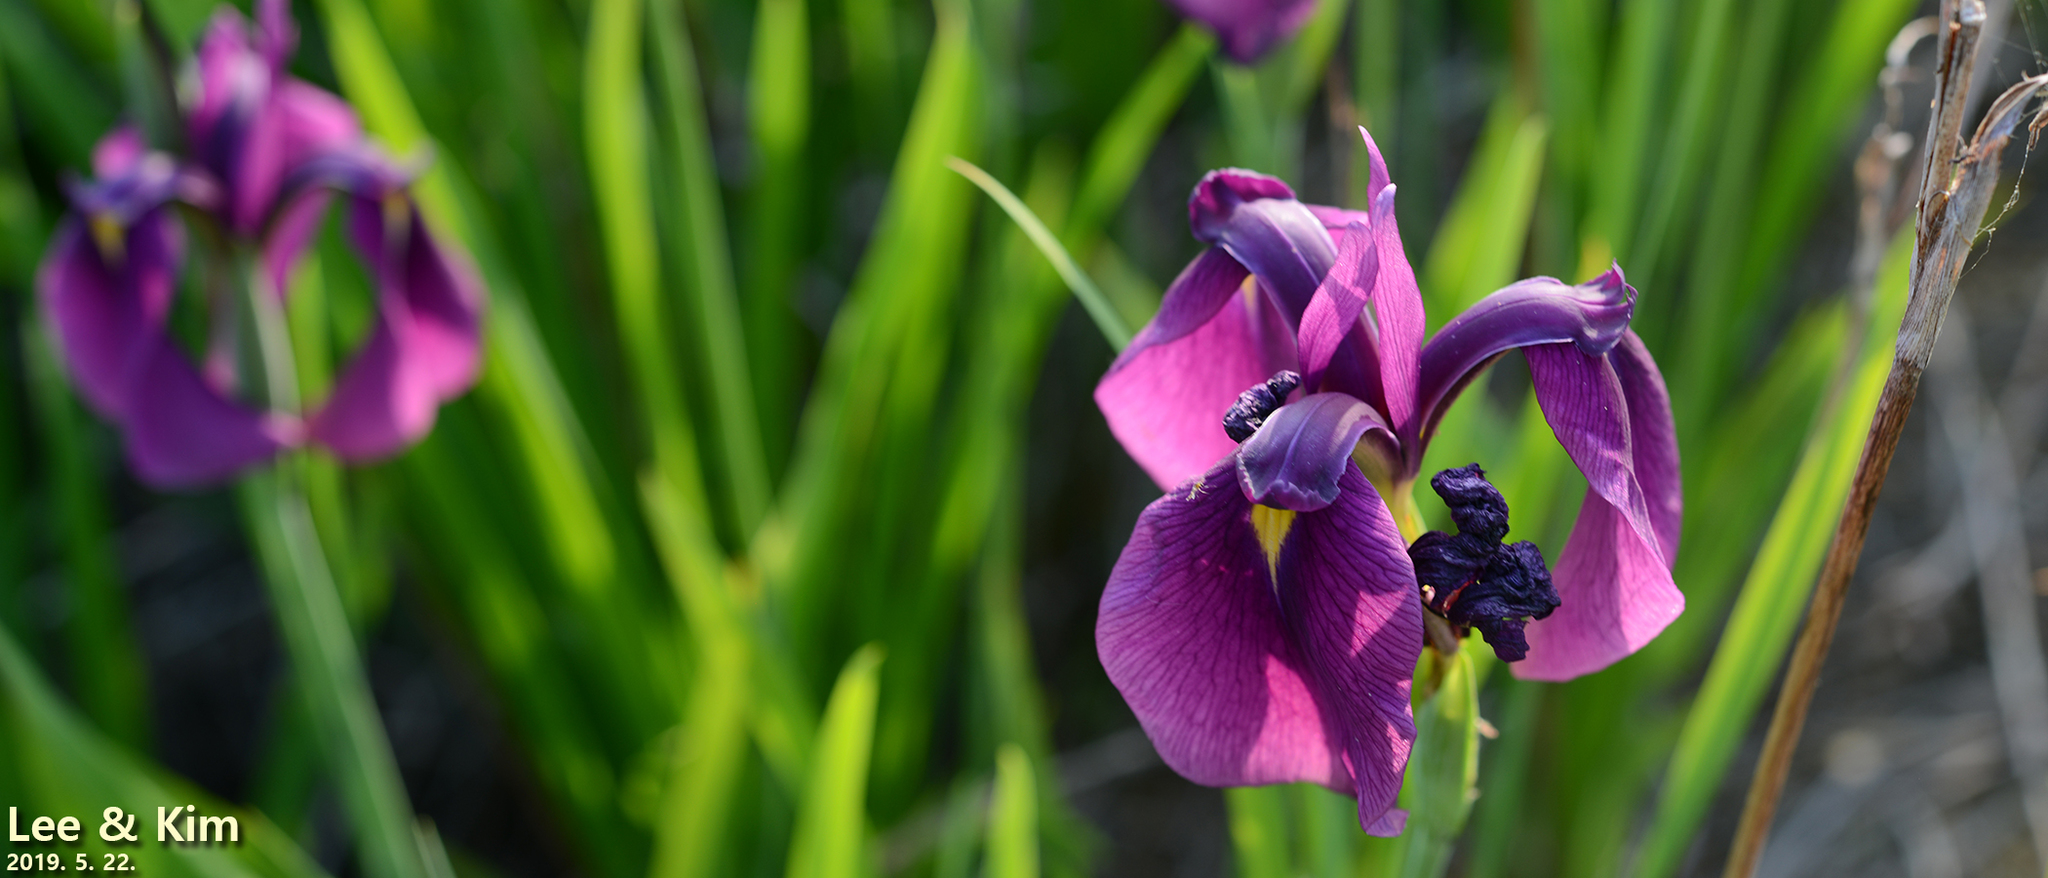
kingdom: Plantae
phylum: Tracheophyta
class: Liliopsida
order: Asparagales
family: Iridaceae
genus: Iris
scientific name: Iris ensata
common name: Beaked iris
